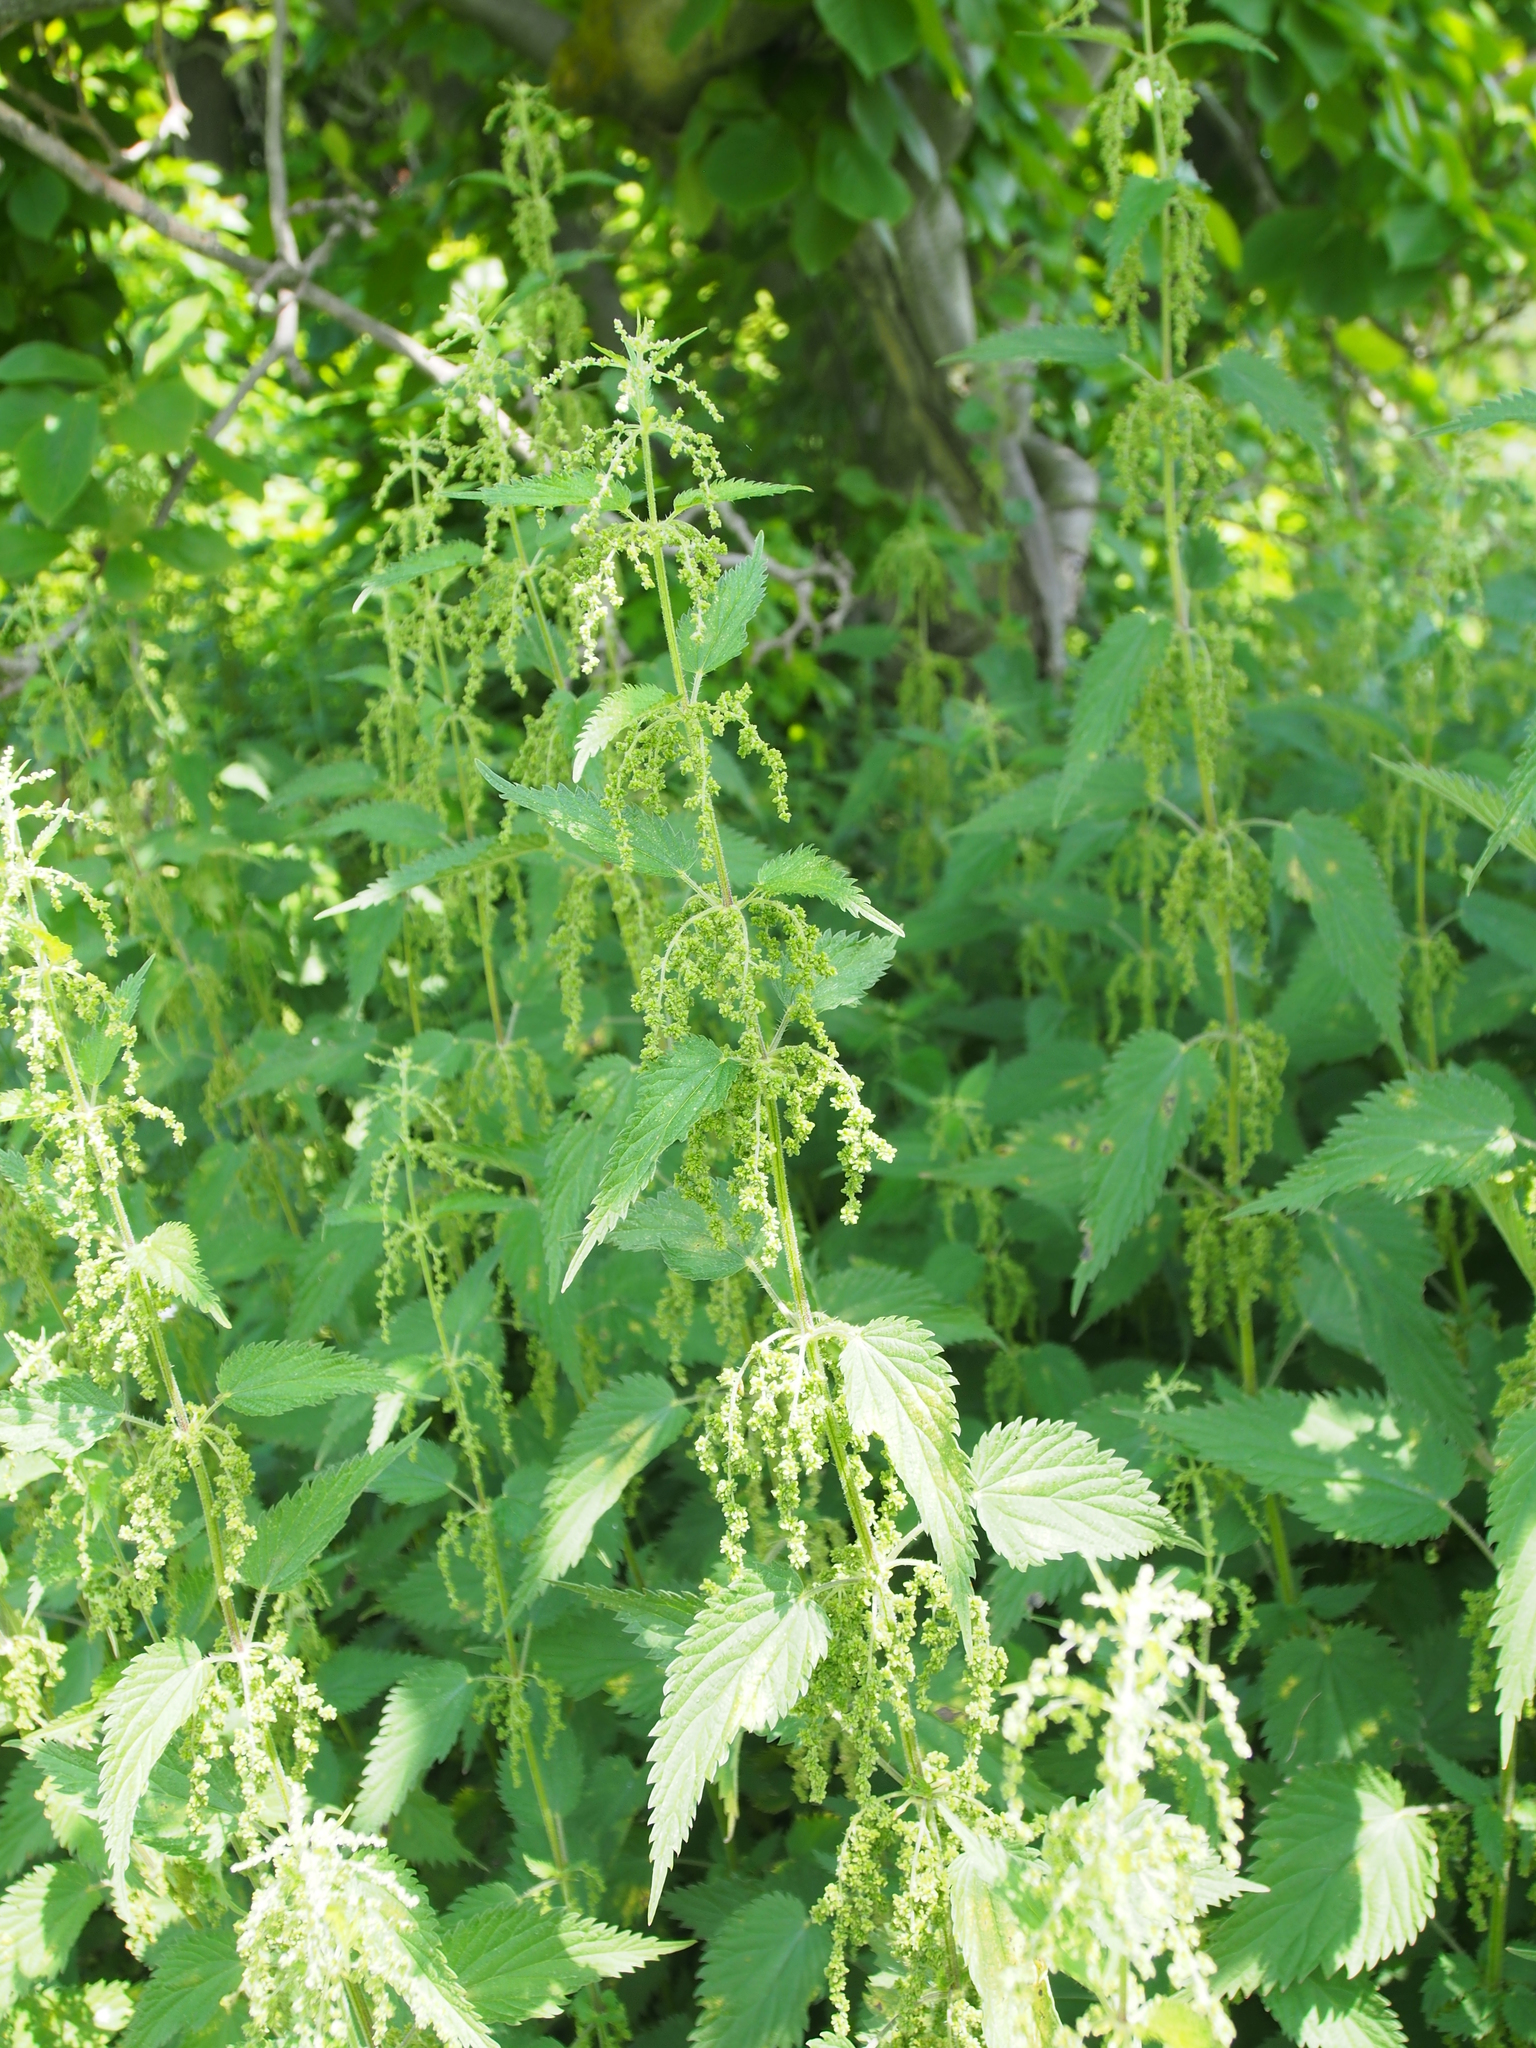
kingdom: Plantae
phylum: Tracheophyta
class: Magnoliopsida
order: Rosales
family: Urticaceae
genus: Urtica
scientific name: Urtica dioica
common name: Common nettle
